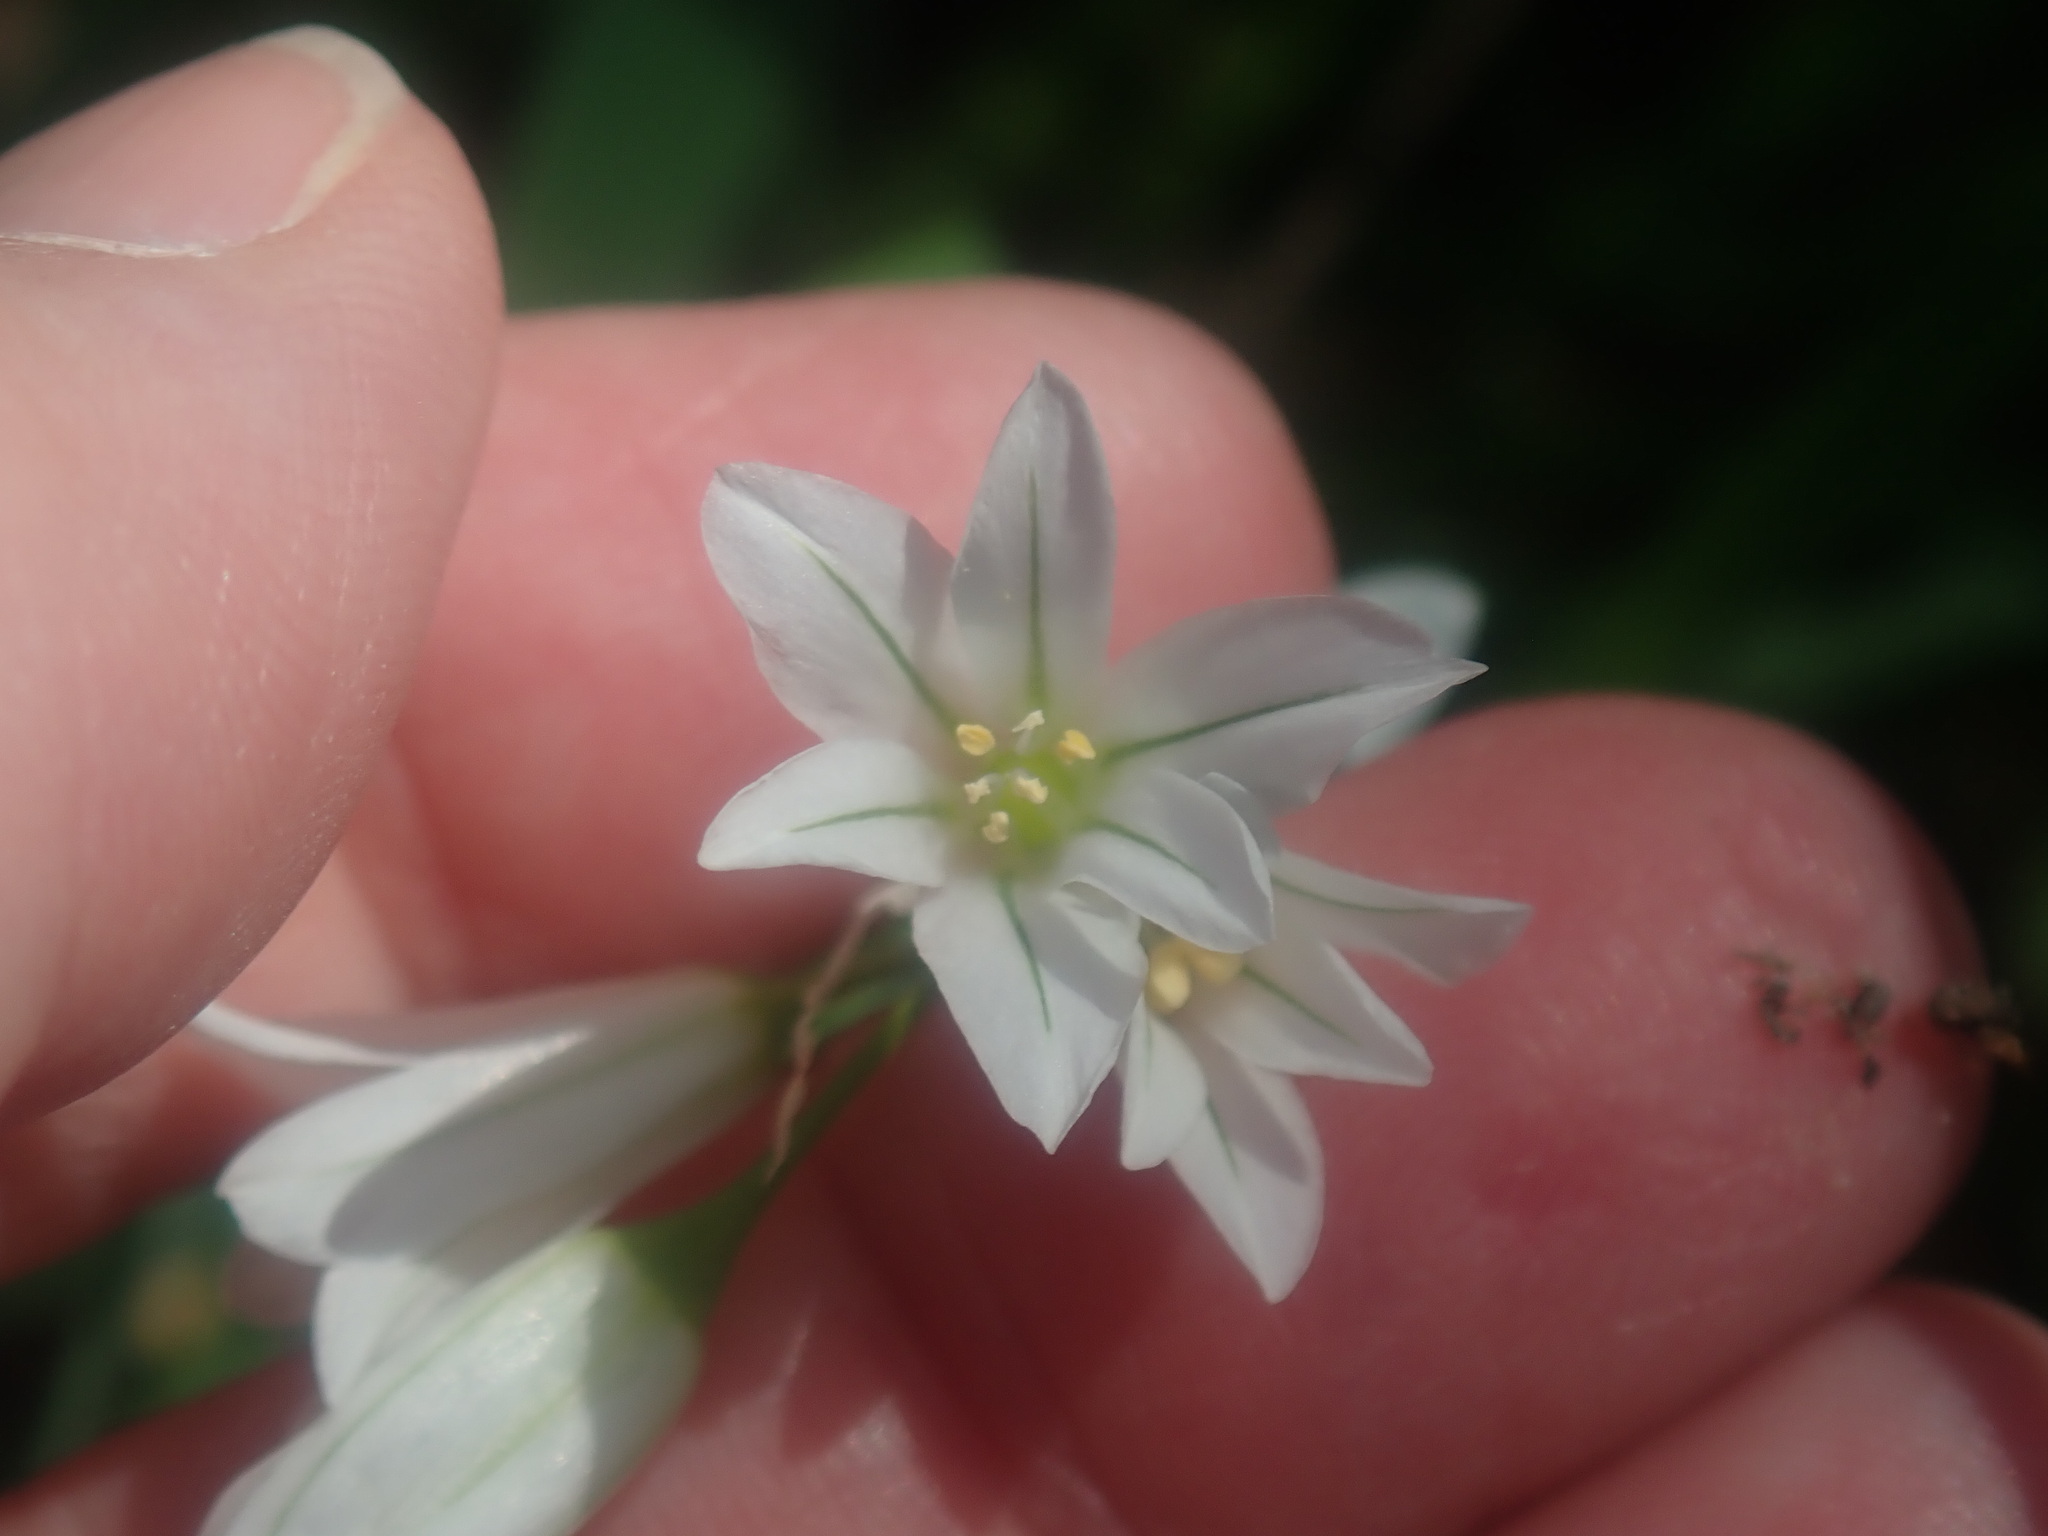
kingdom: Plantae
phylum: Tracheophyta
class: Liliopsida
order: Asparagales
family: Amaryllidaceae
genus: Allium
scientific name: Allium triquetrum
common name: Three-cornered garlic
